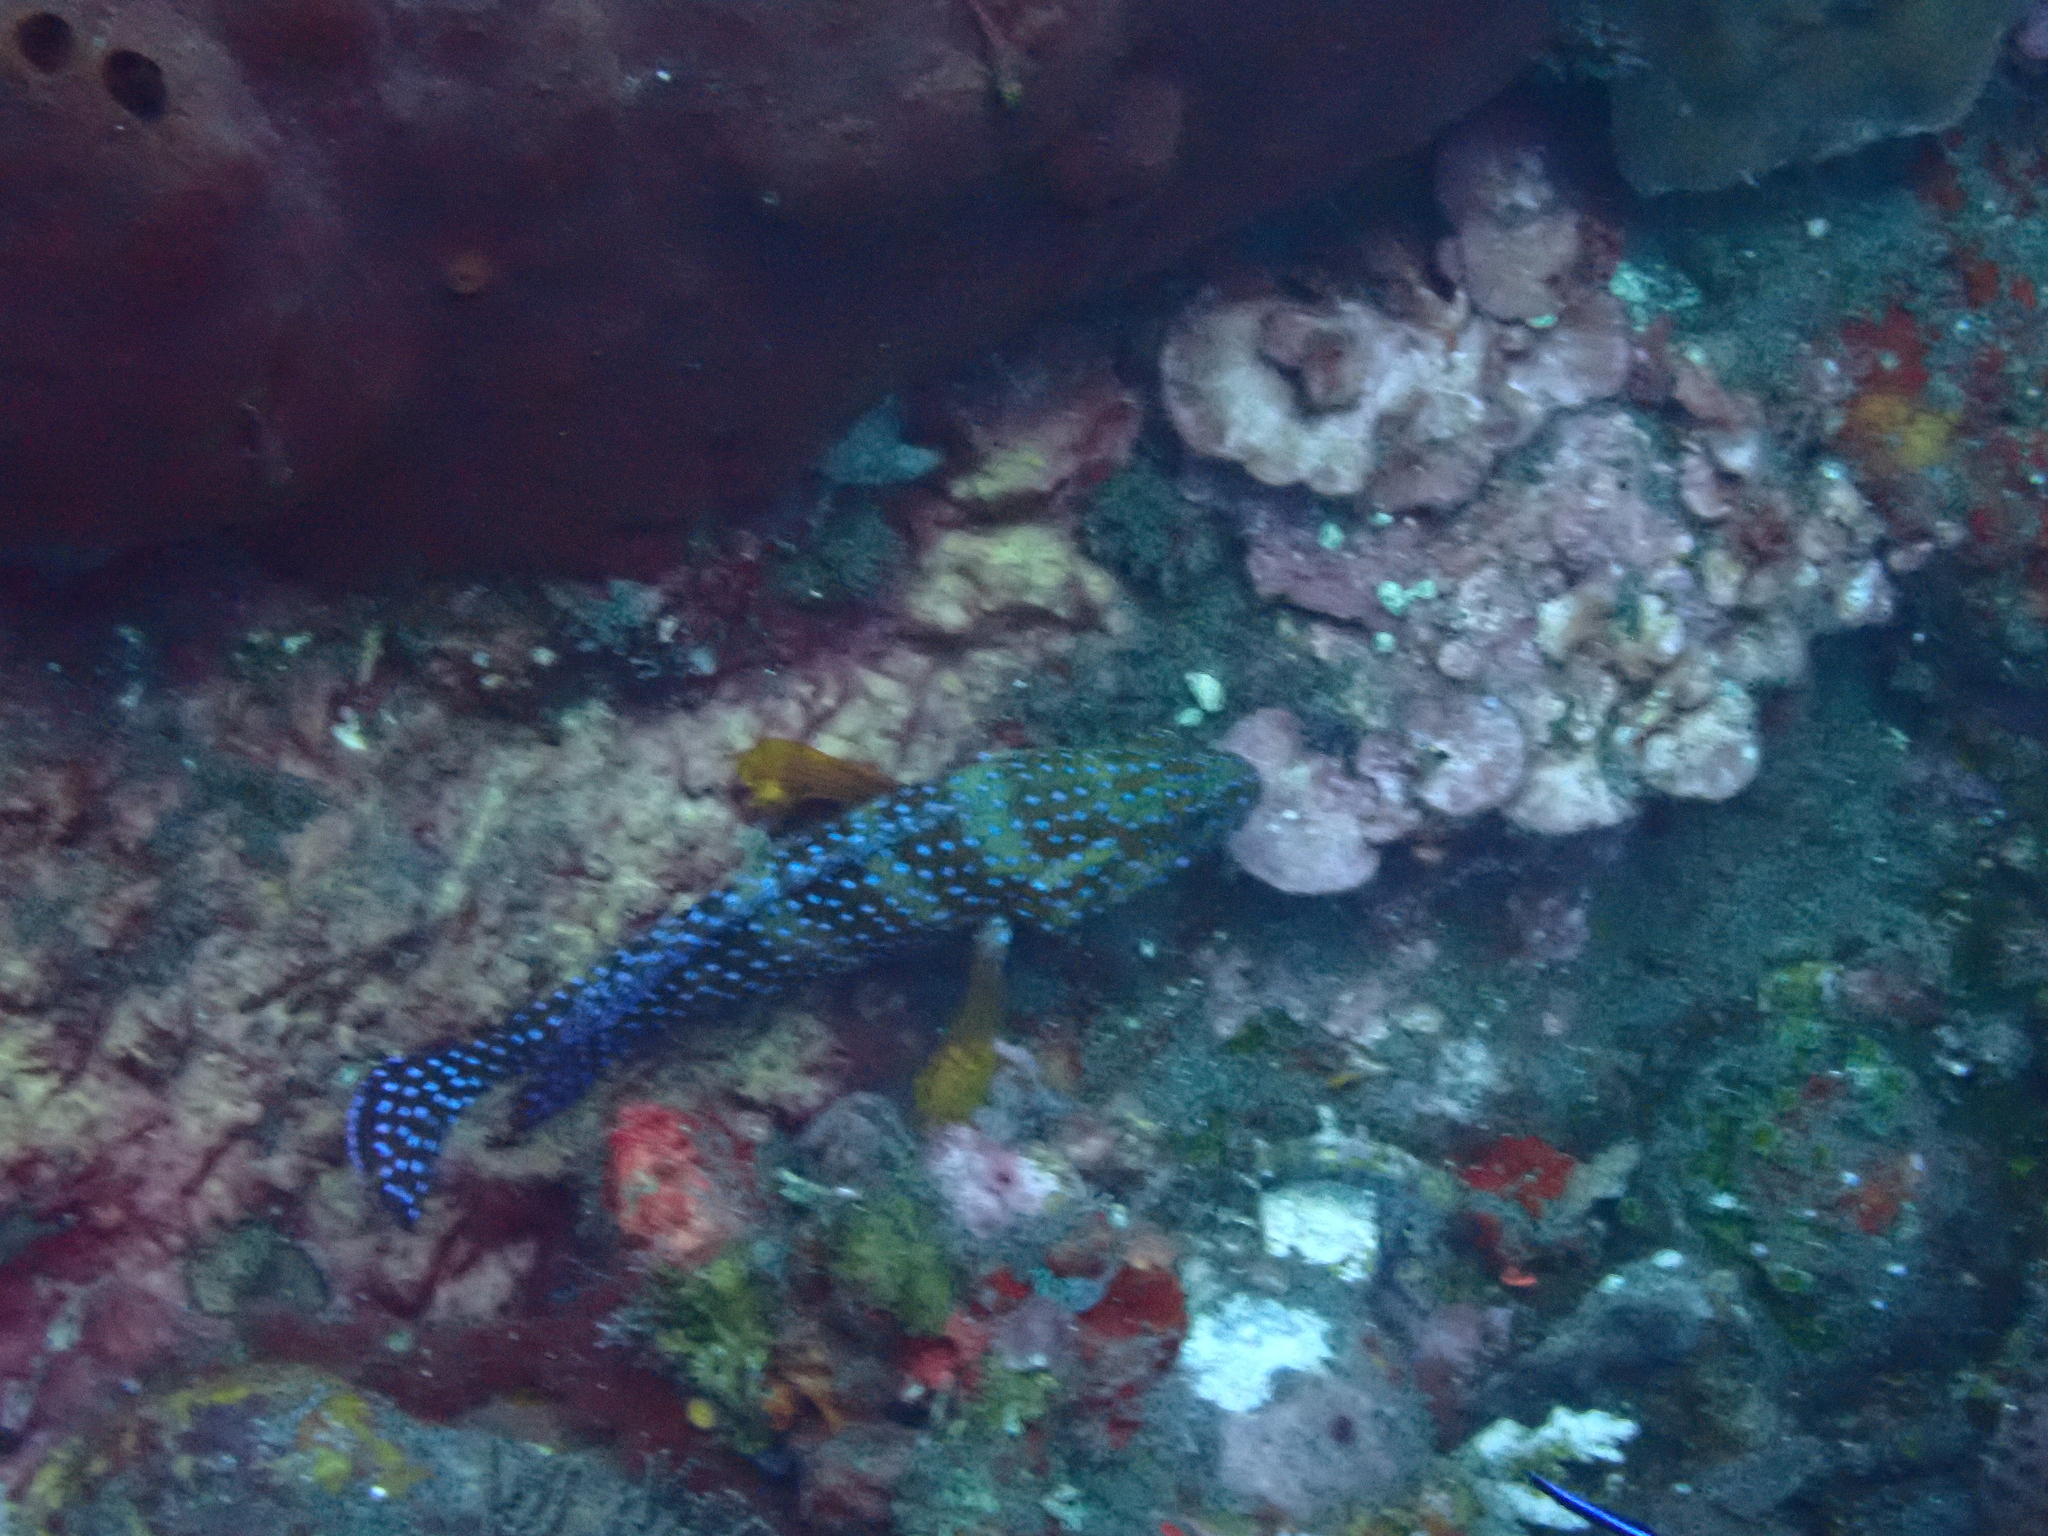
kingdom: Animalia
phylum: Chordata
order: Perciformes
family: Serranidae
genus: Cephalopholis
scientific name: Cephalopholis miniata
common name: Coral hind
